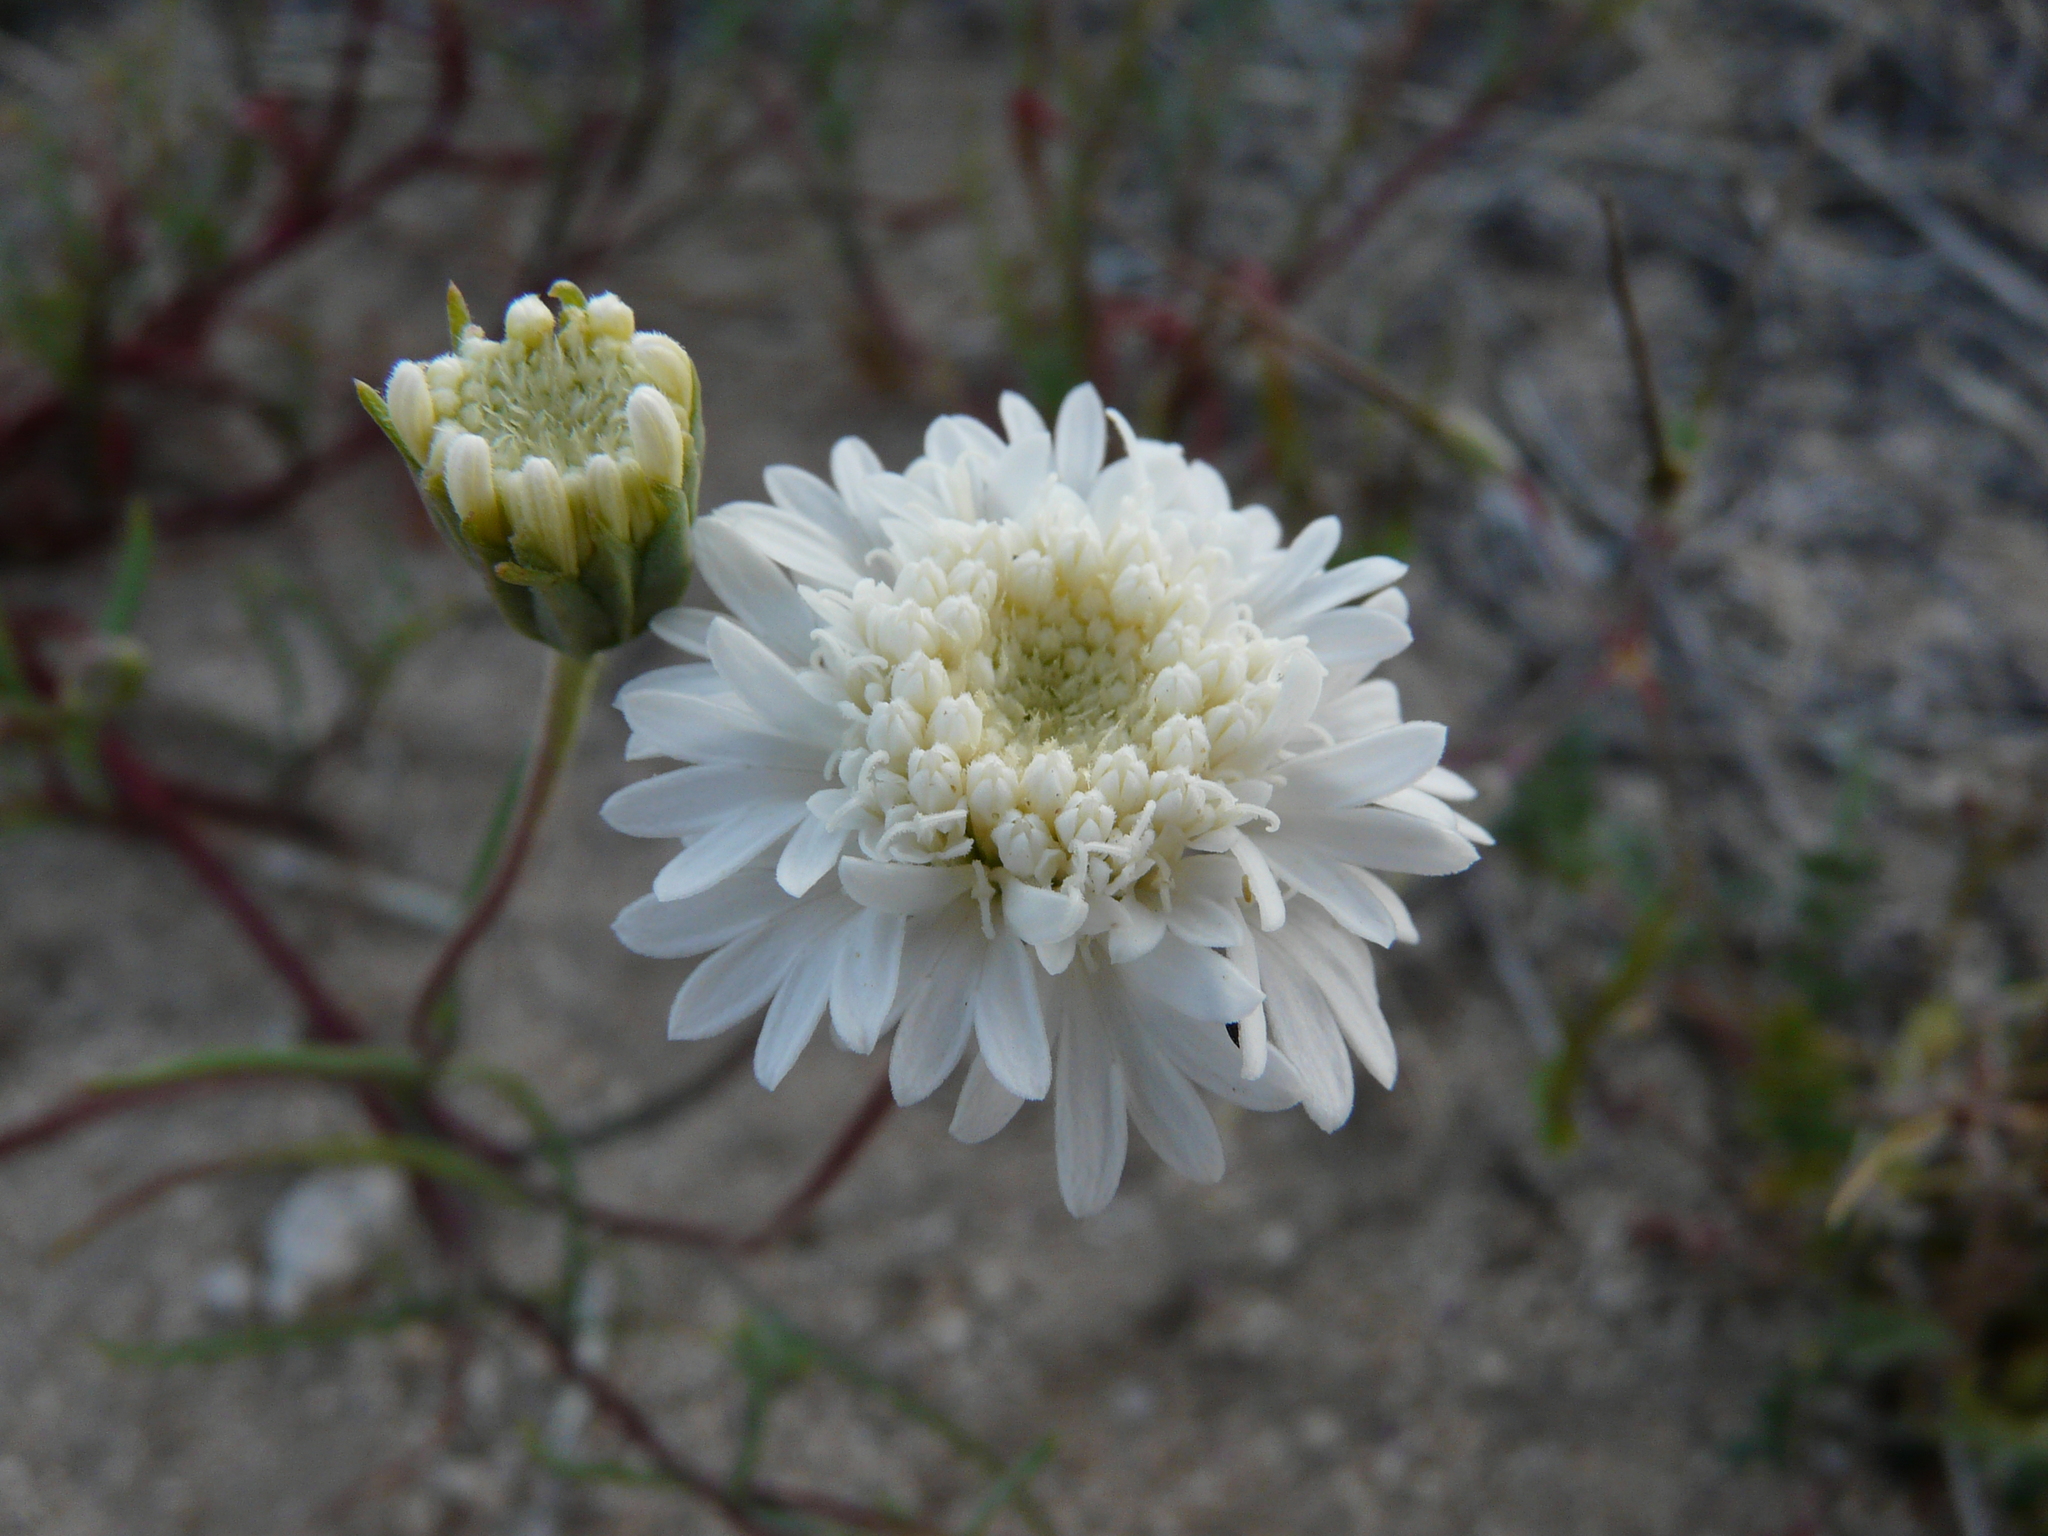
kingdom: Plantae
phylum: Tracheophyta
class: Magnoliopsida
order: Asterales
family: Asteraceae
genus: Chaenactis
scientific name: Chaenactis fremontii
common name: Fremont pincushion
